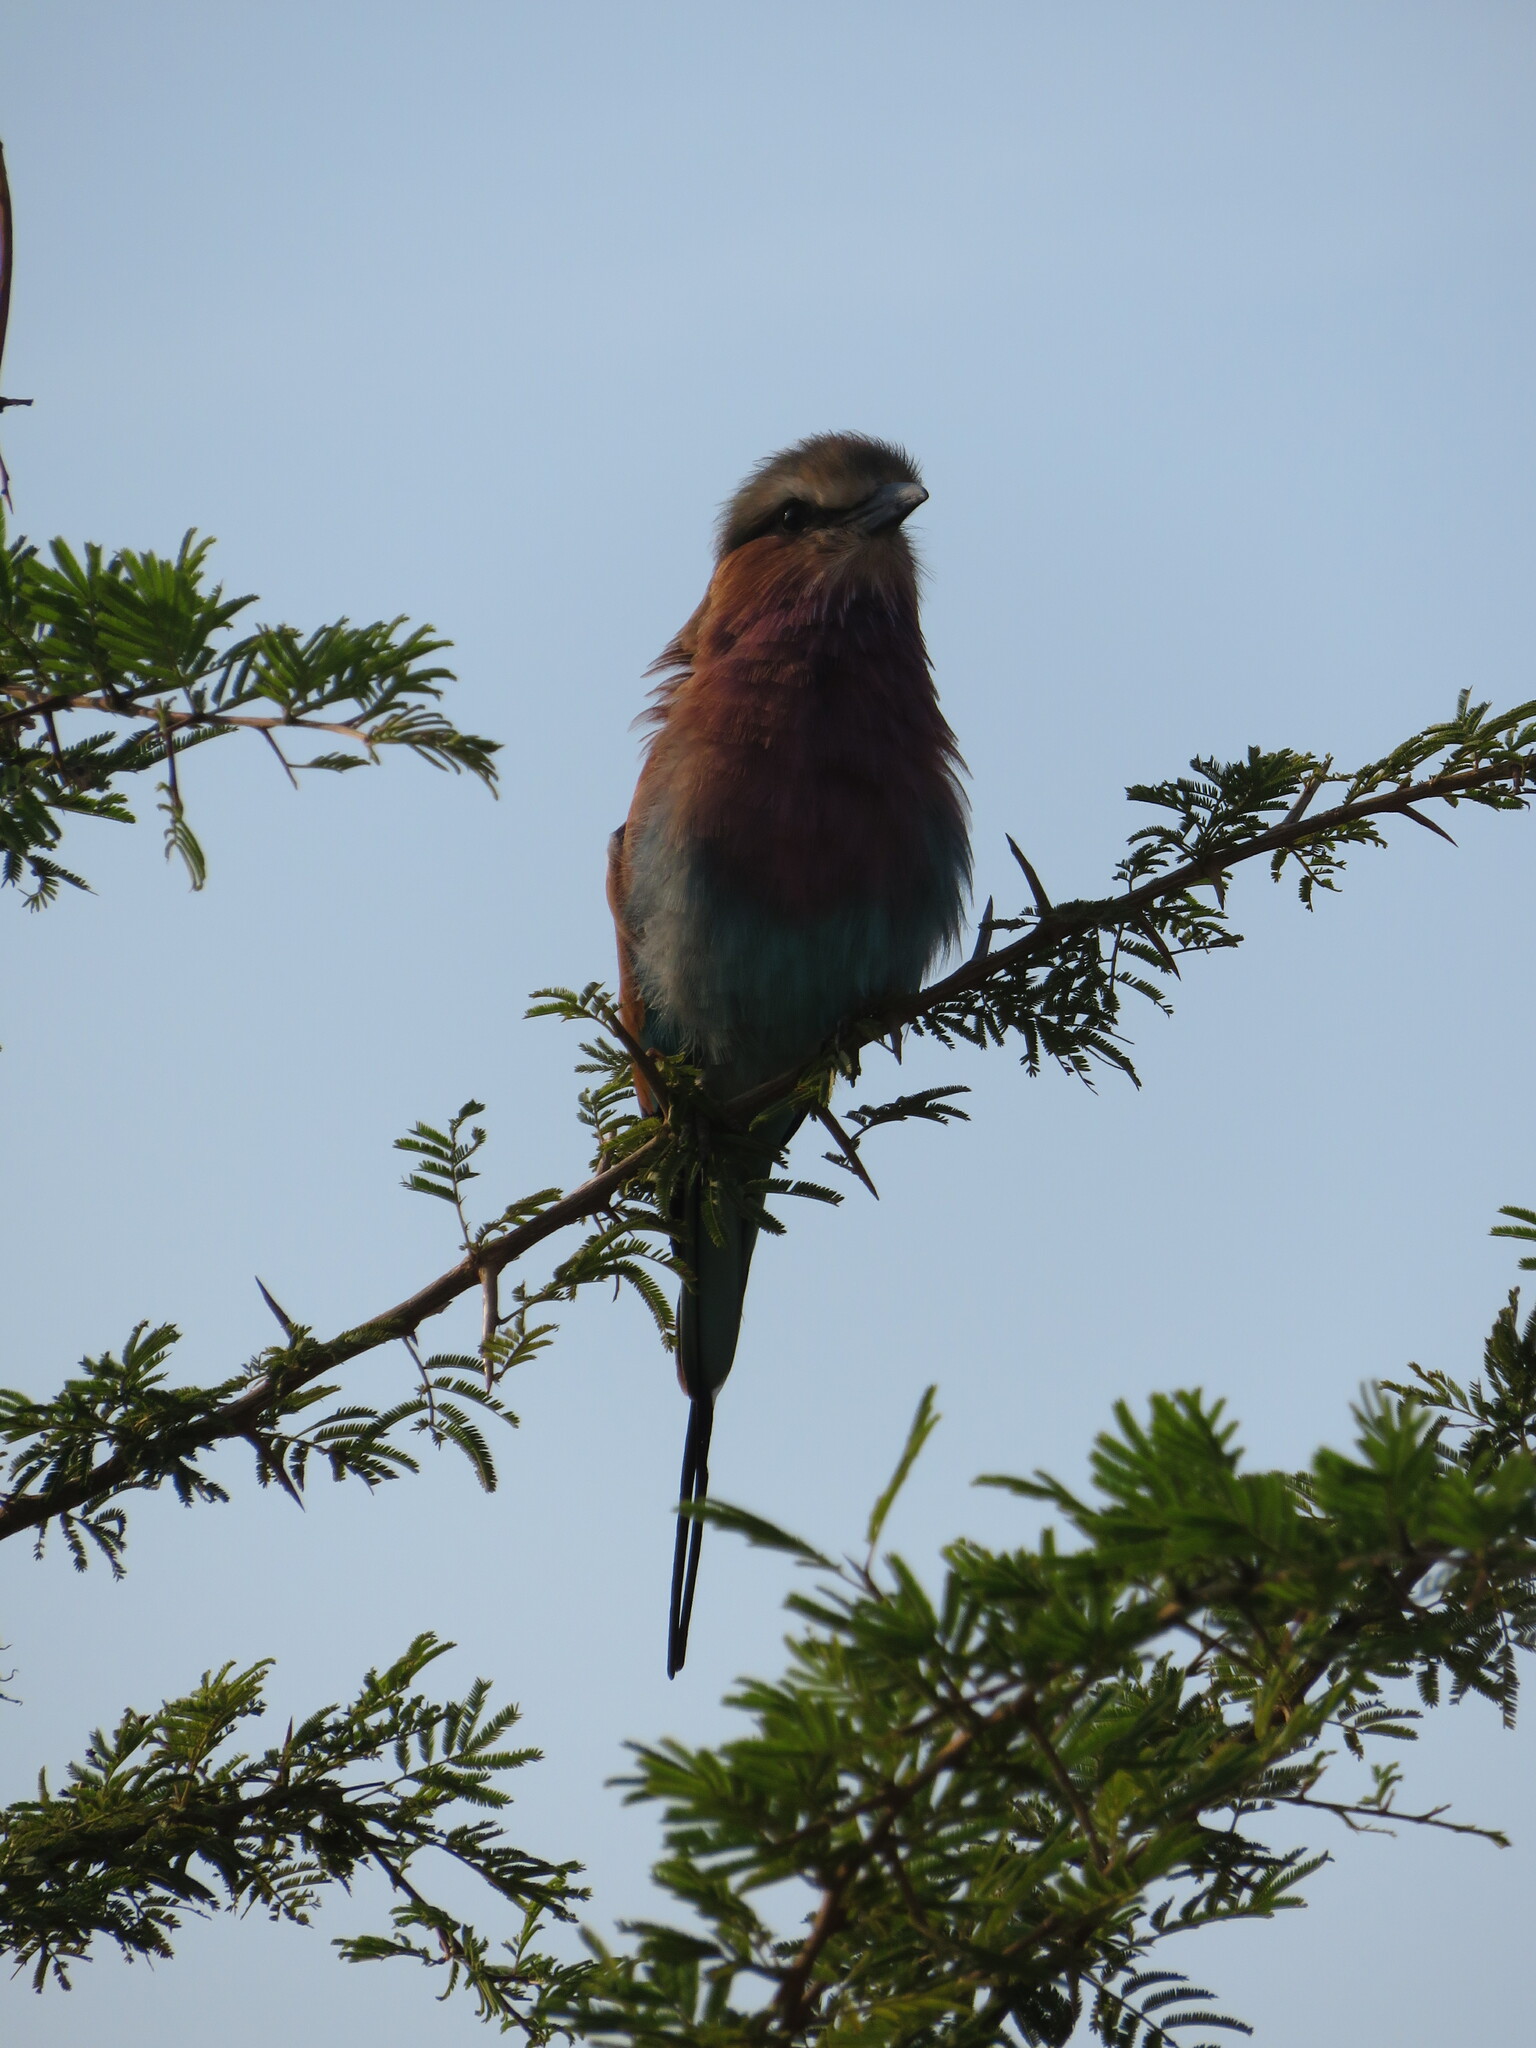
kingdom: Animalia
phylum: Chordata
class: Aves
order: Coraciiformes
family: Coraciidae
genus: Coracias
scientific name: Coracias caudatus
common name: Lilac-breasted roller
